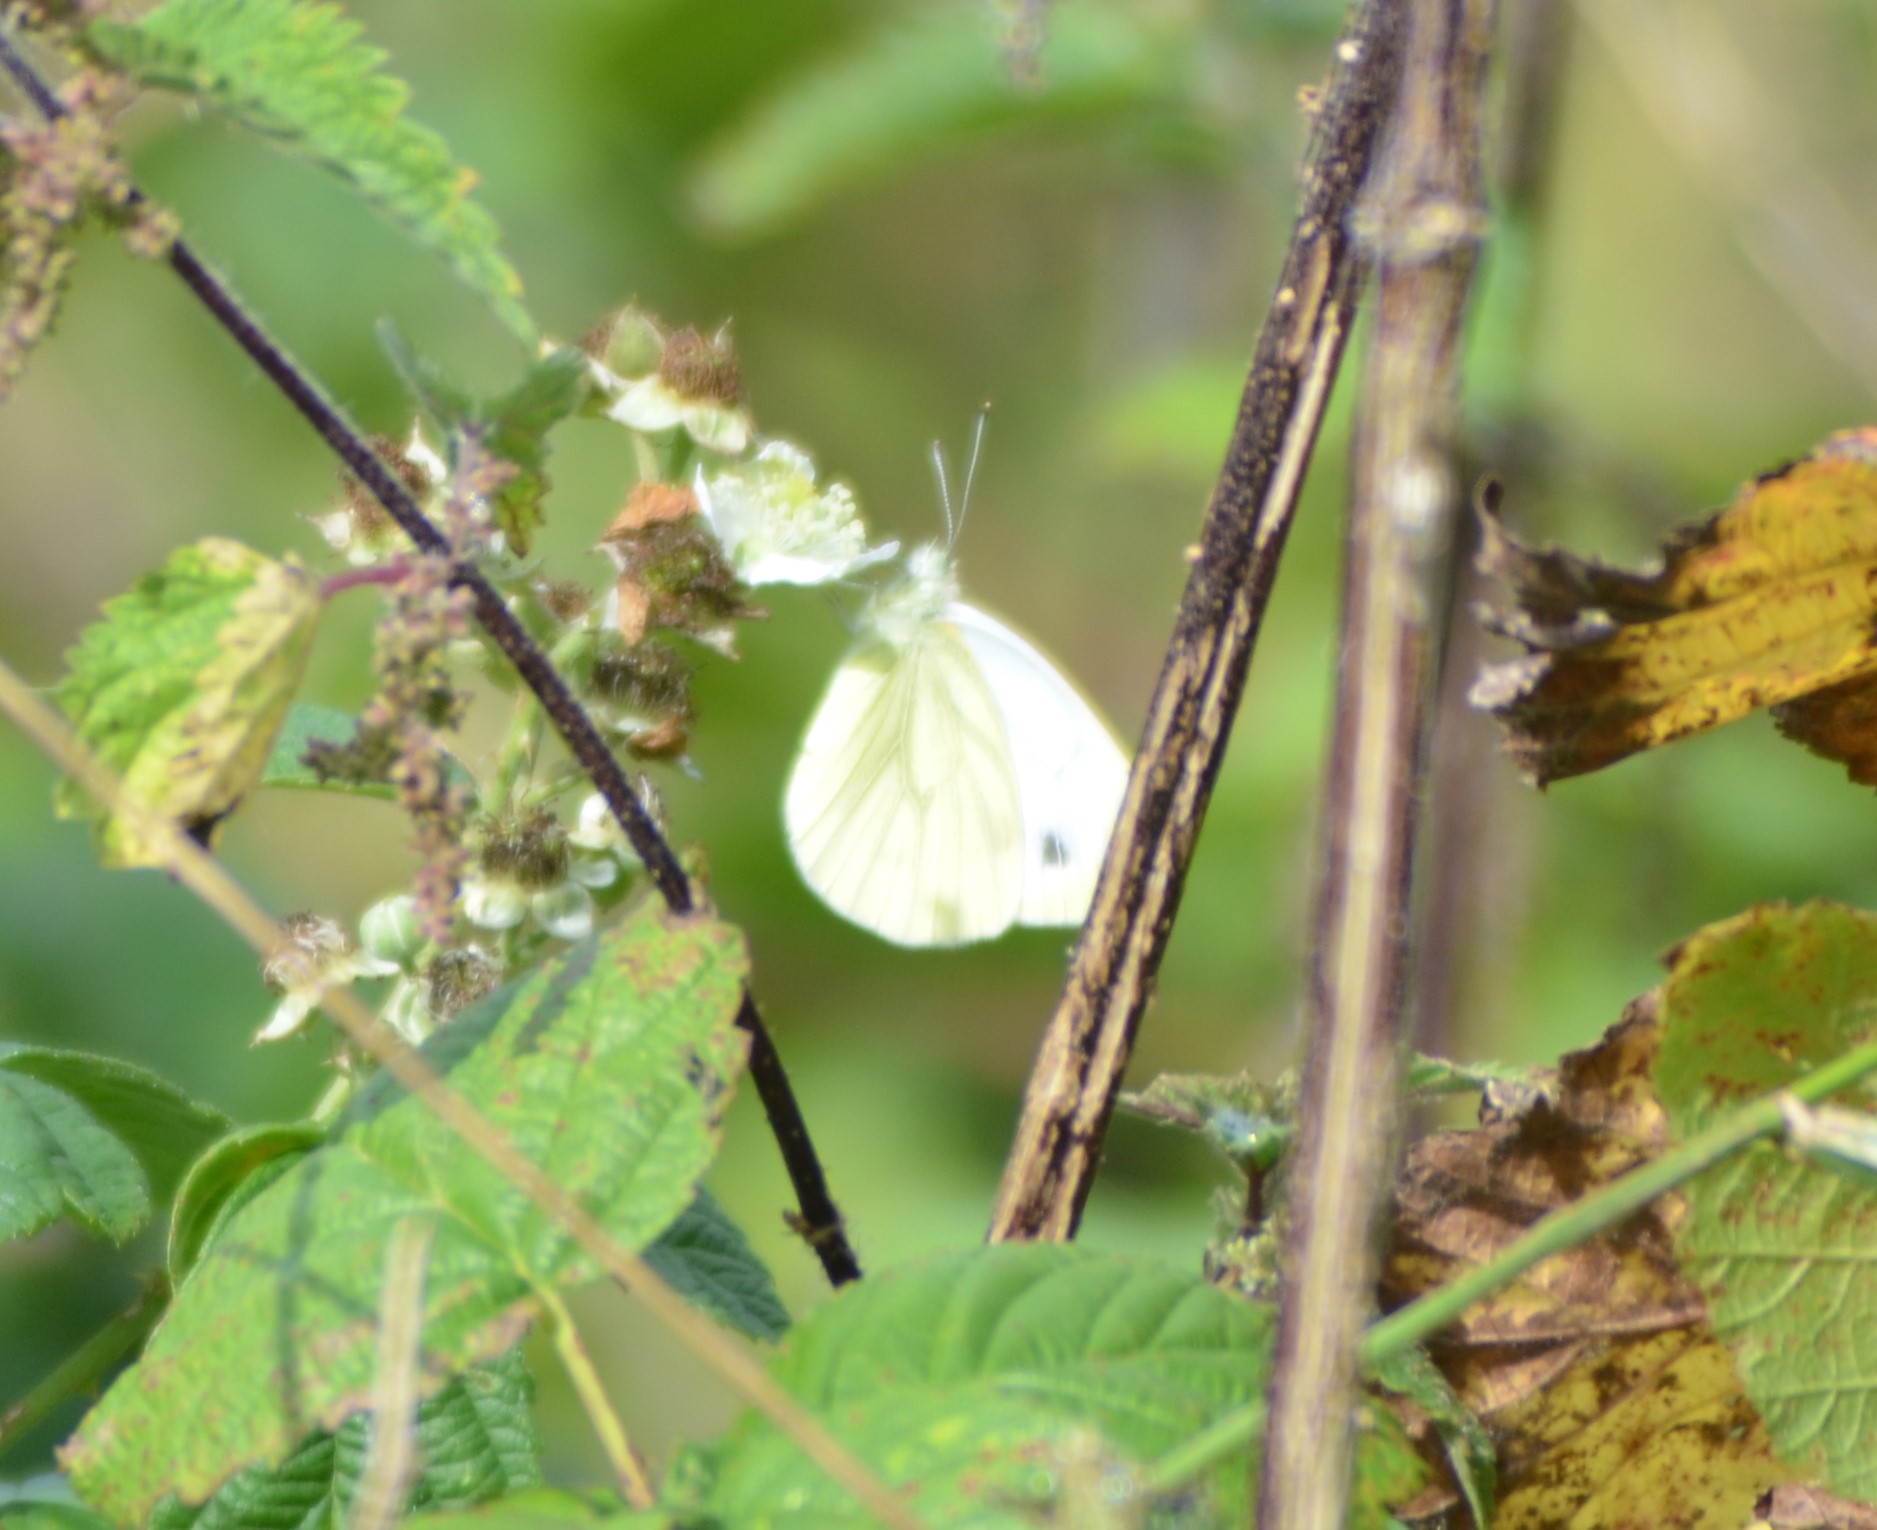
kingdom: Animalia
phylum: Arthropoda
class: Insecta
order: Lepidoptera
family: Pieridae
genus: Pieris
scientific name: Pieris napi
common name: Green-veined white
